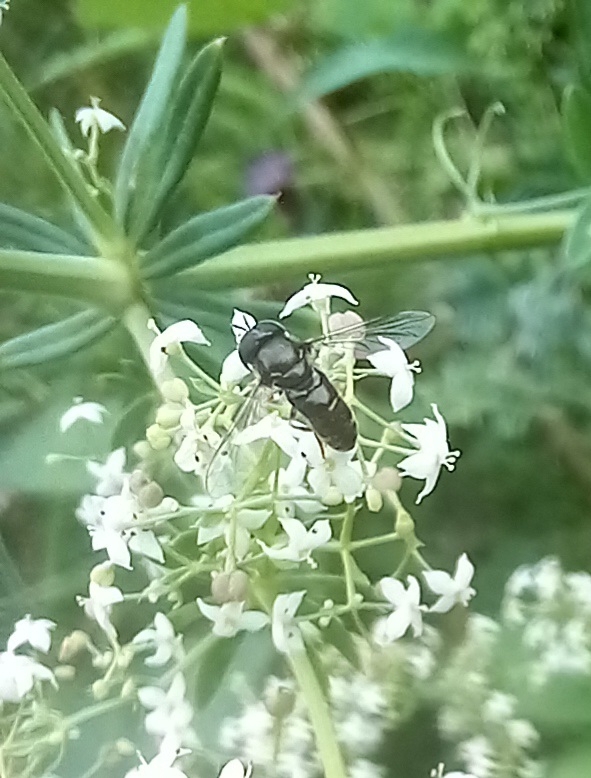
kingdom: Animalia
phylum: Arthropoda
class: Insecta
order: Diptera
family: Syrphidae
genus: Paragus
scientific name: Paragus
